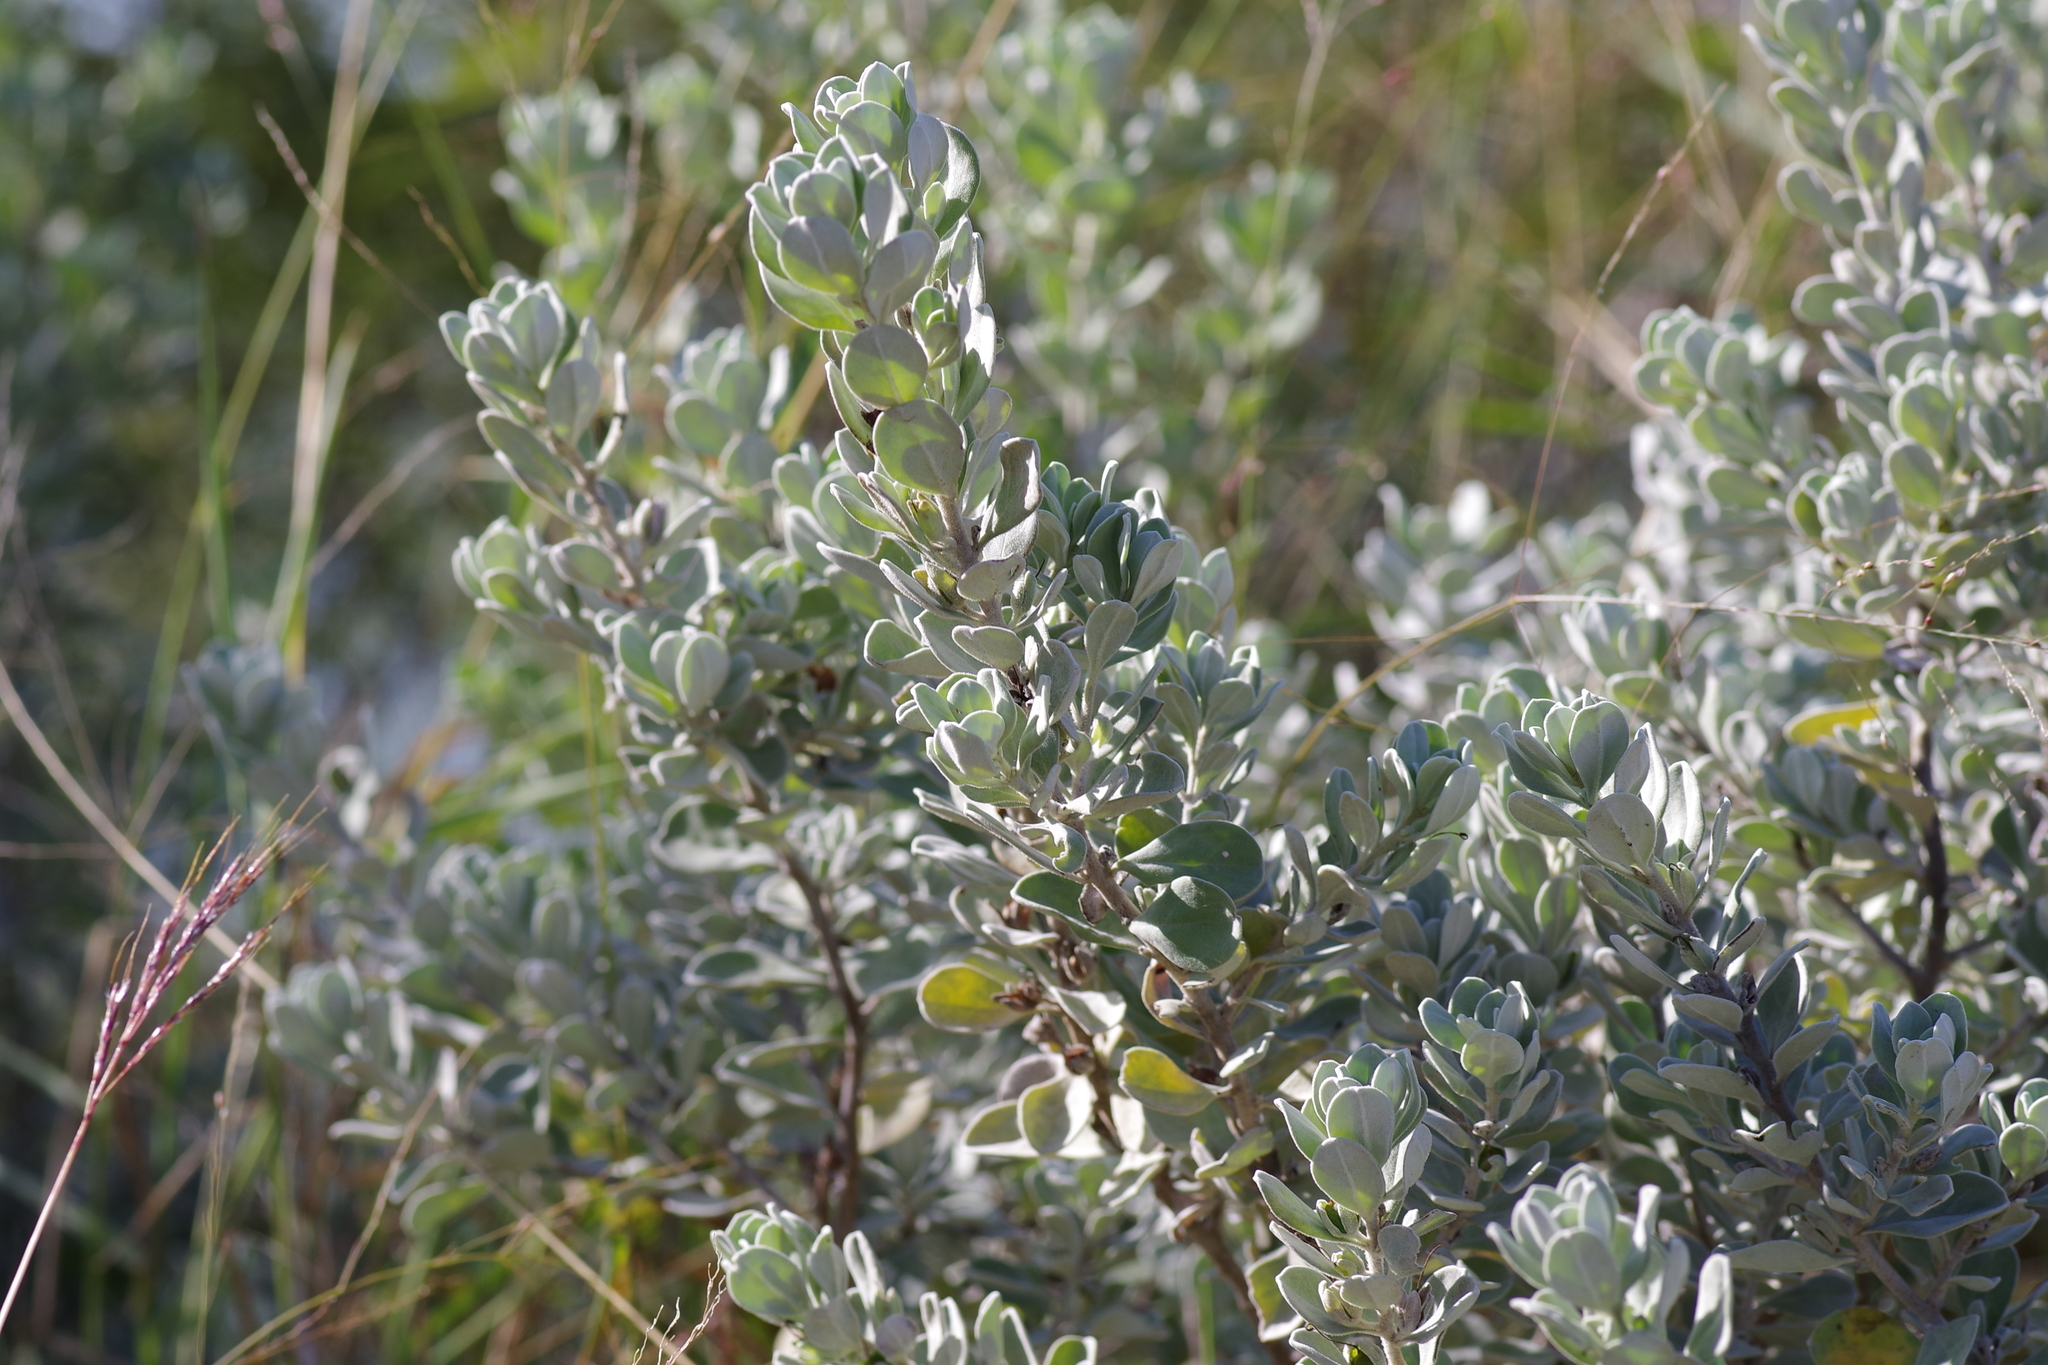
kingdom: Plantae
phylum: Tracheophyta
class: Magnoliopsida
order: Lamiales
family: Scrophulariaceae
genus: Leucophyllum
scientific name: Leucophyllum frutescens
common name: Texas silverleaf
